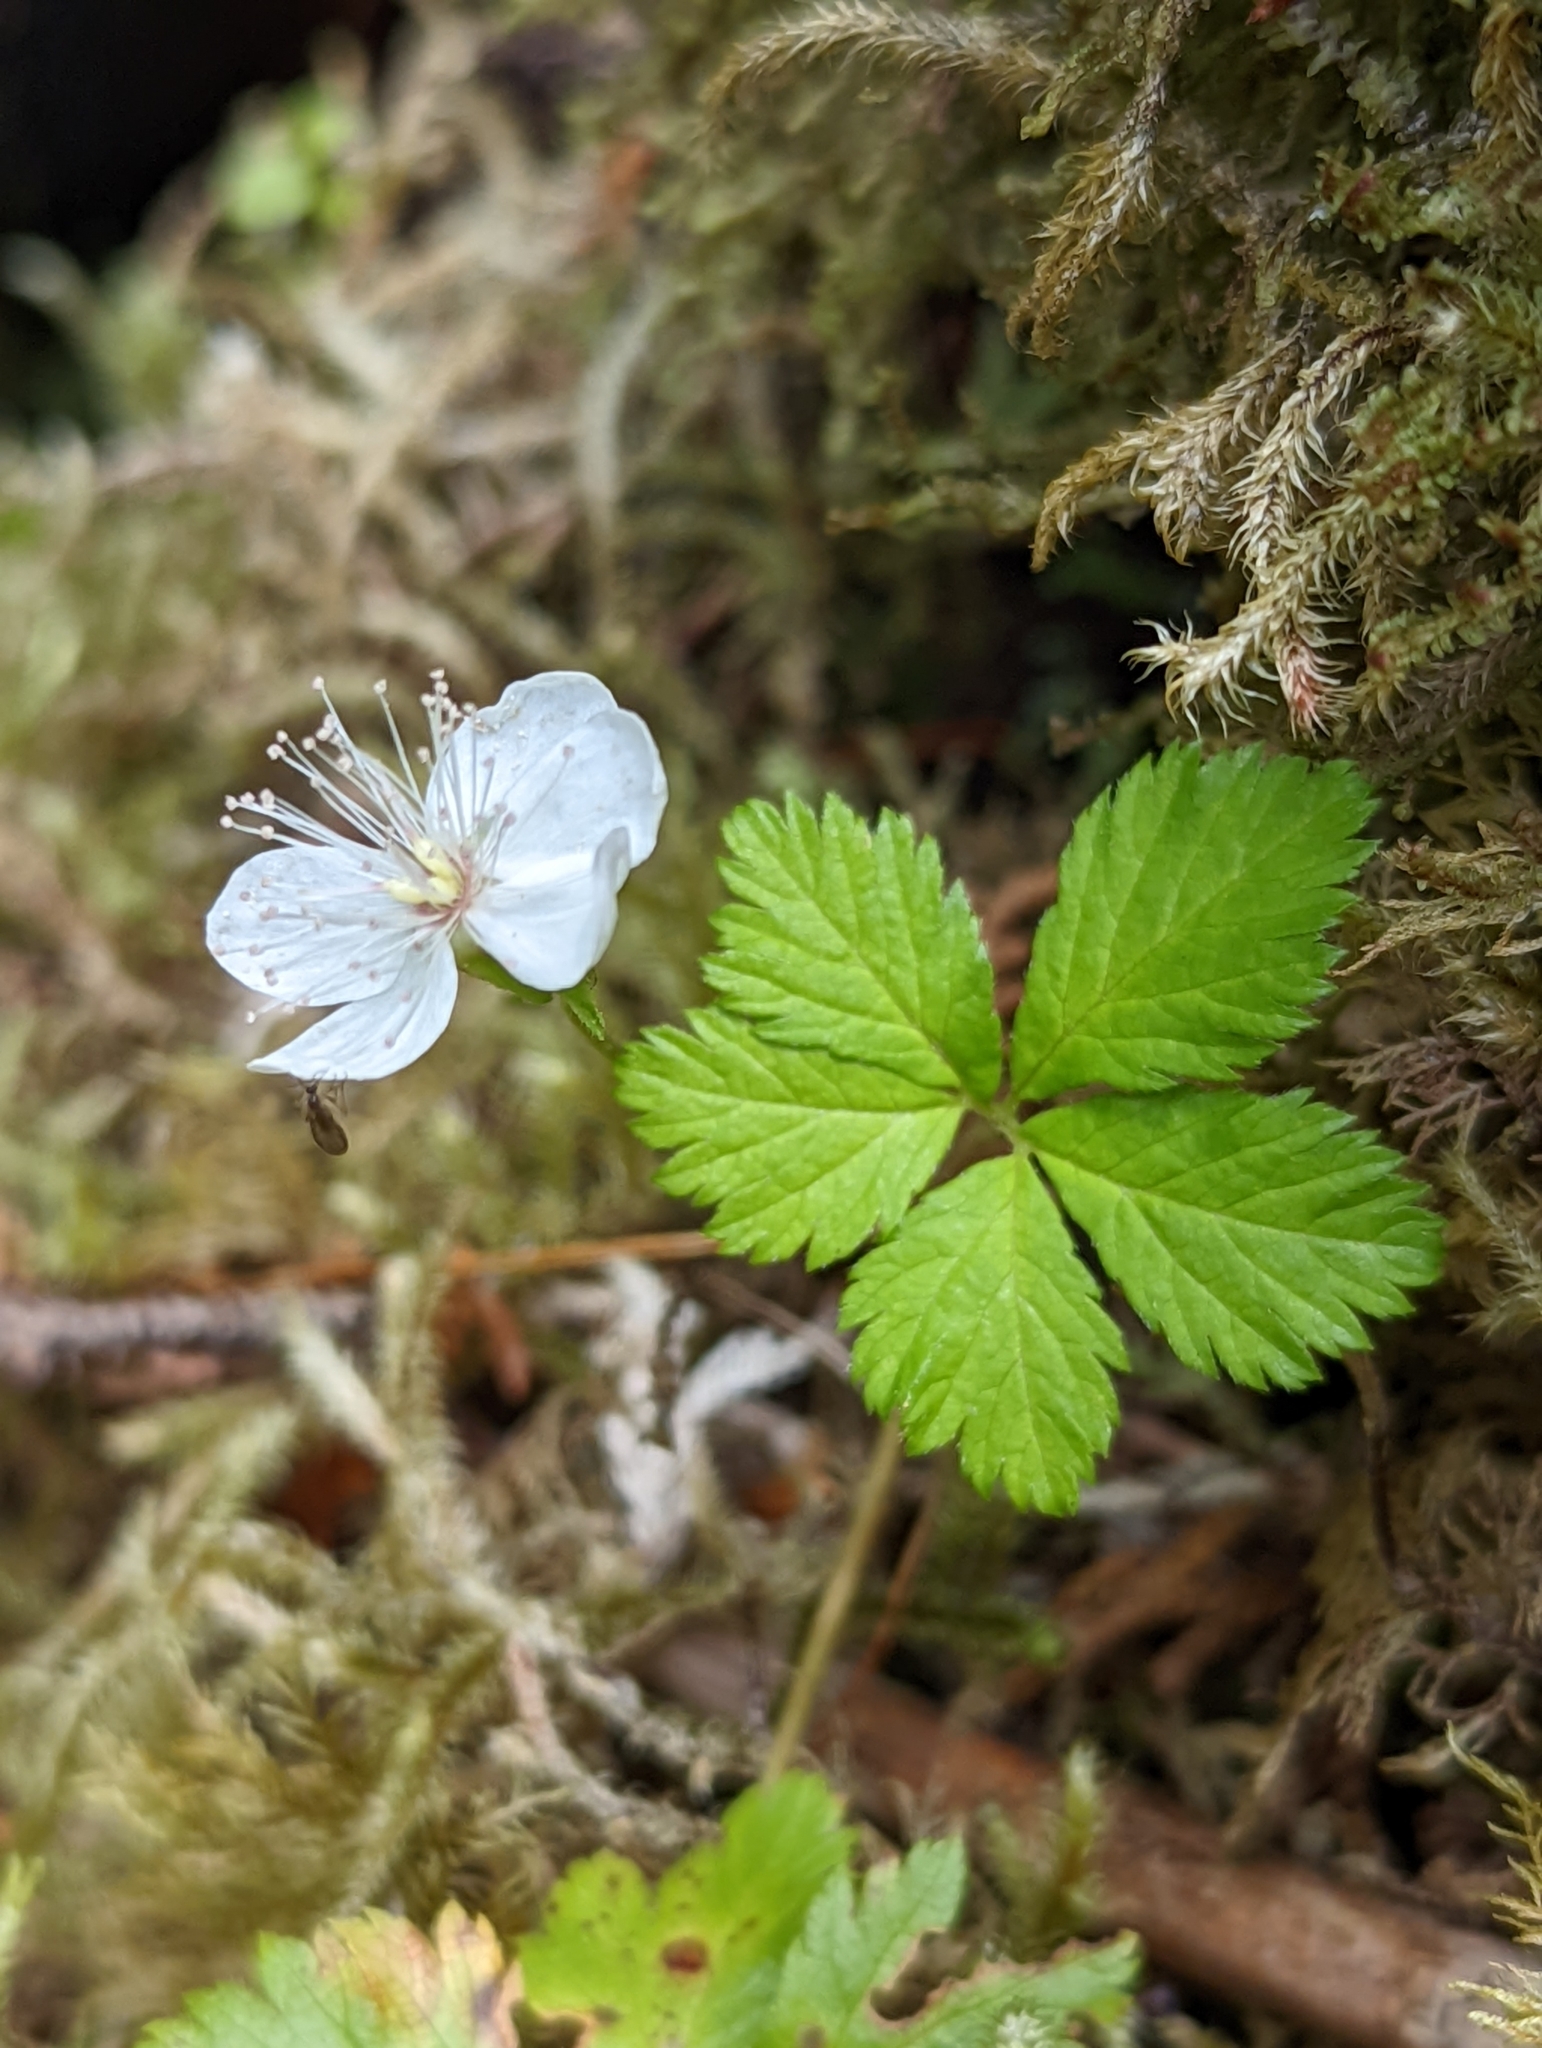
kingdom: Plantae
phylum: Tracheophyta
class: Magnoliopsida
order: Rosales
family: Rosaceae
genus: Rubus
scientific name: Rubus pedatus
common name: Creeping raspberry
